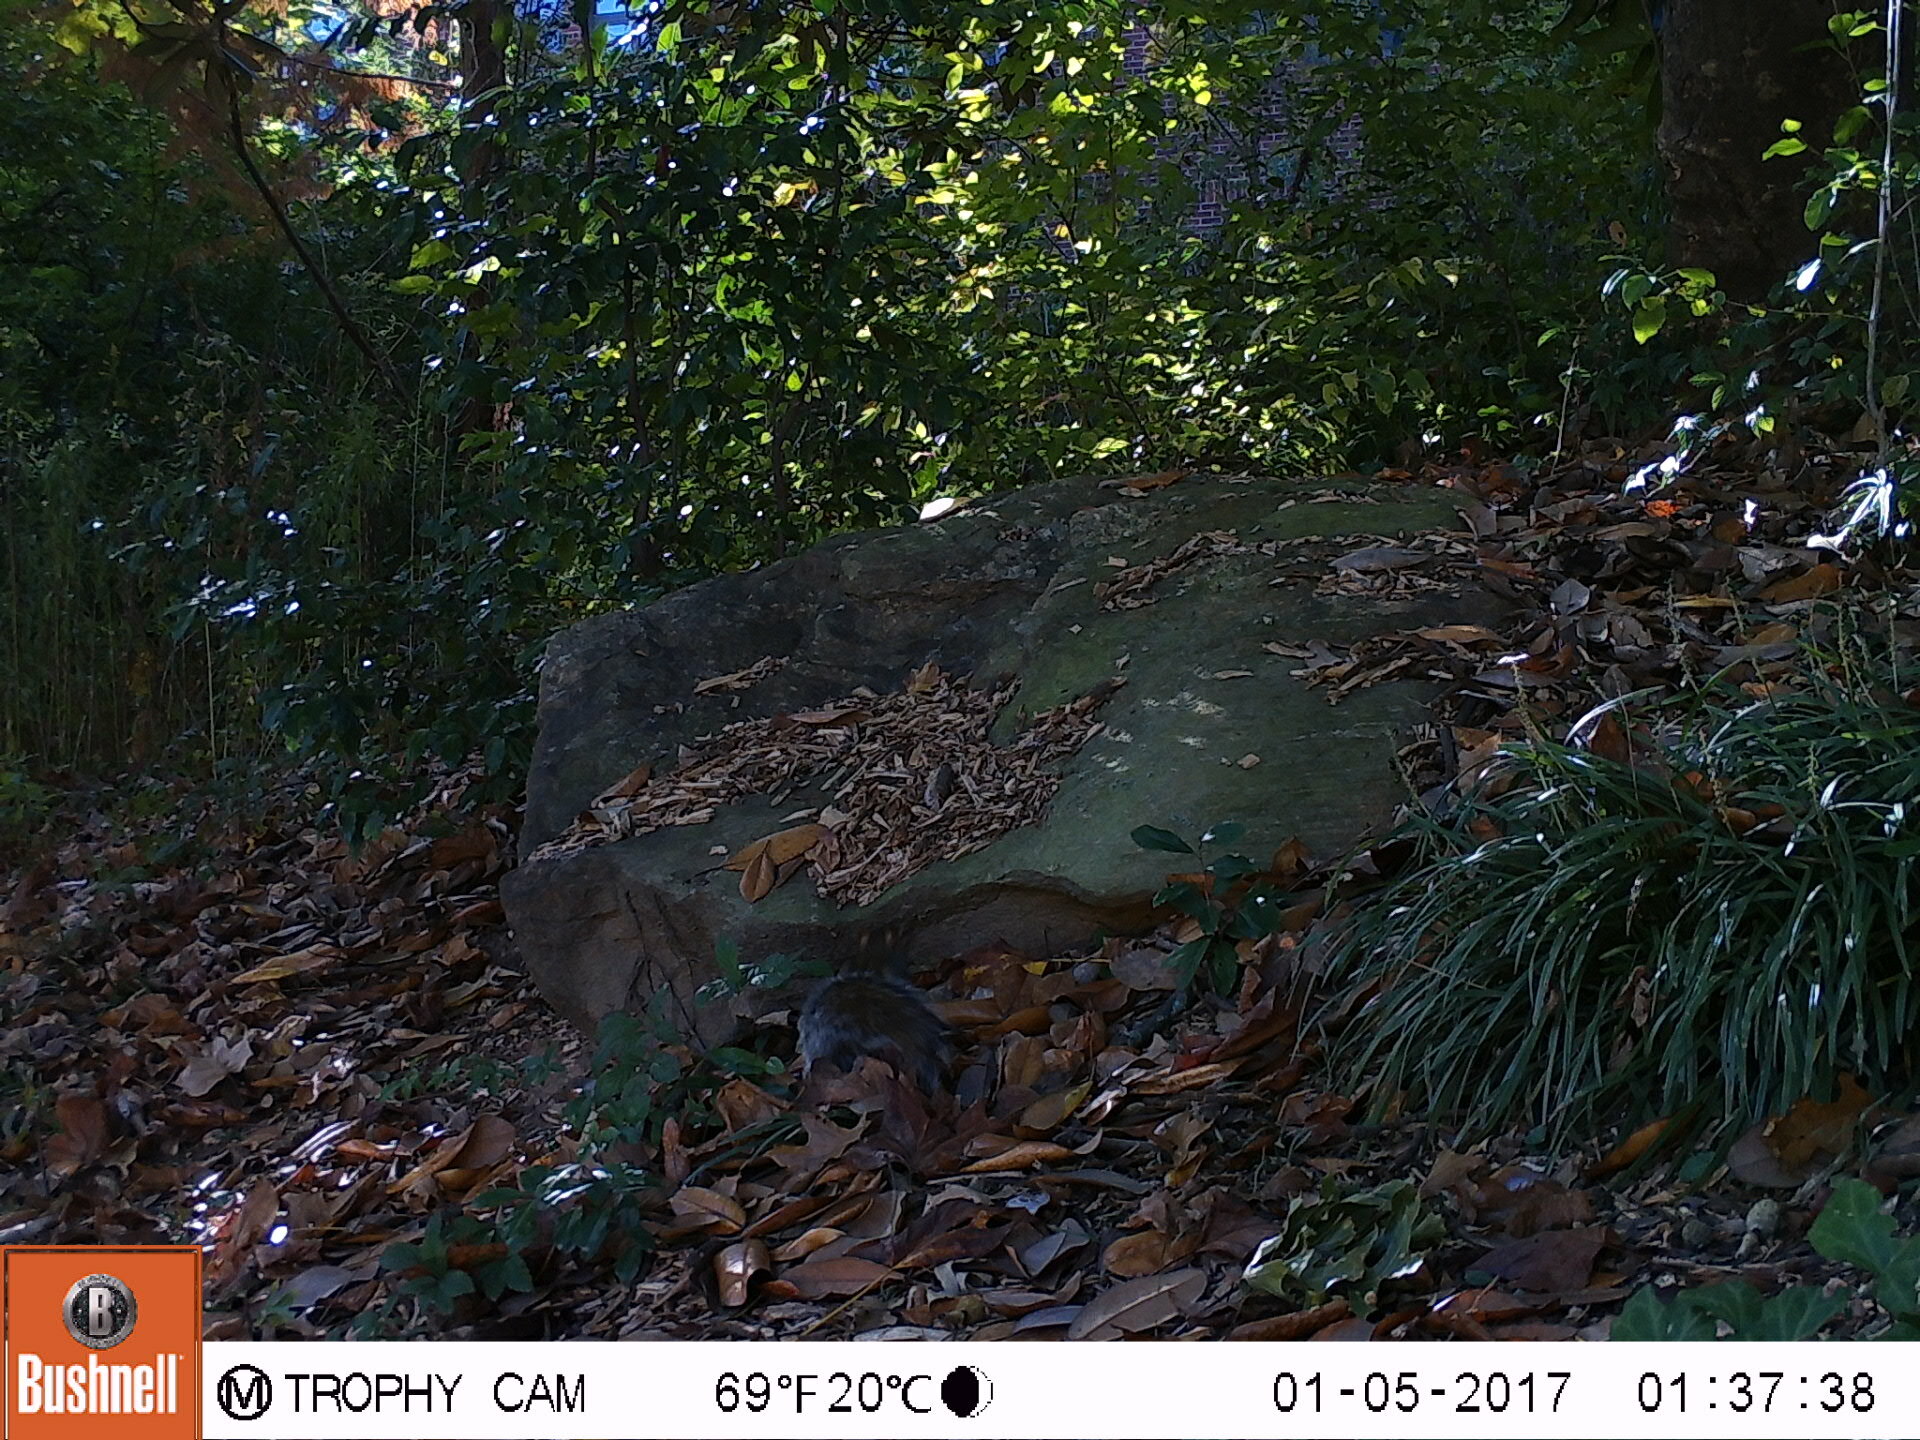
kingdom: Animalia
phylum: Chordata
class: Mammalia
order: Rodentia
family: Sciuridae
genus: Sciurus
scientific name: Sciurus carolinensis
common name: Eastern gray squirrel
